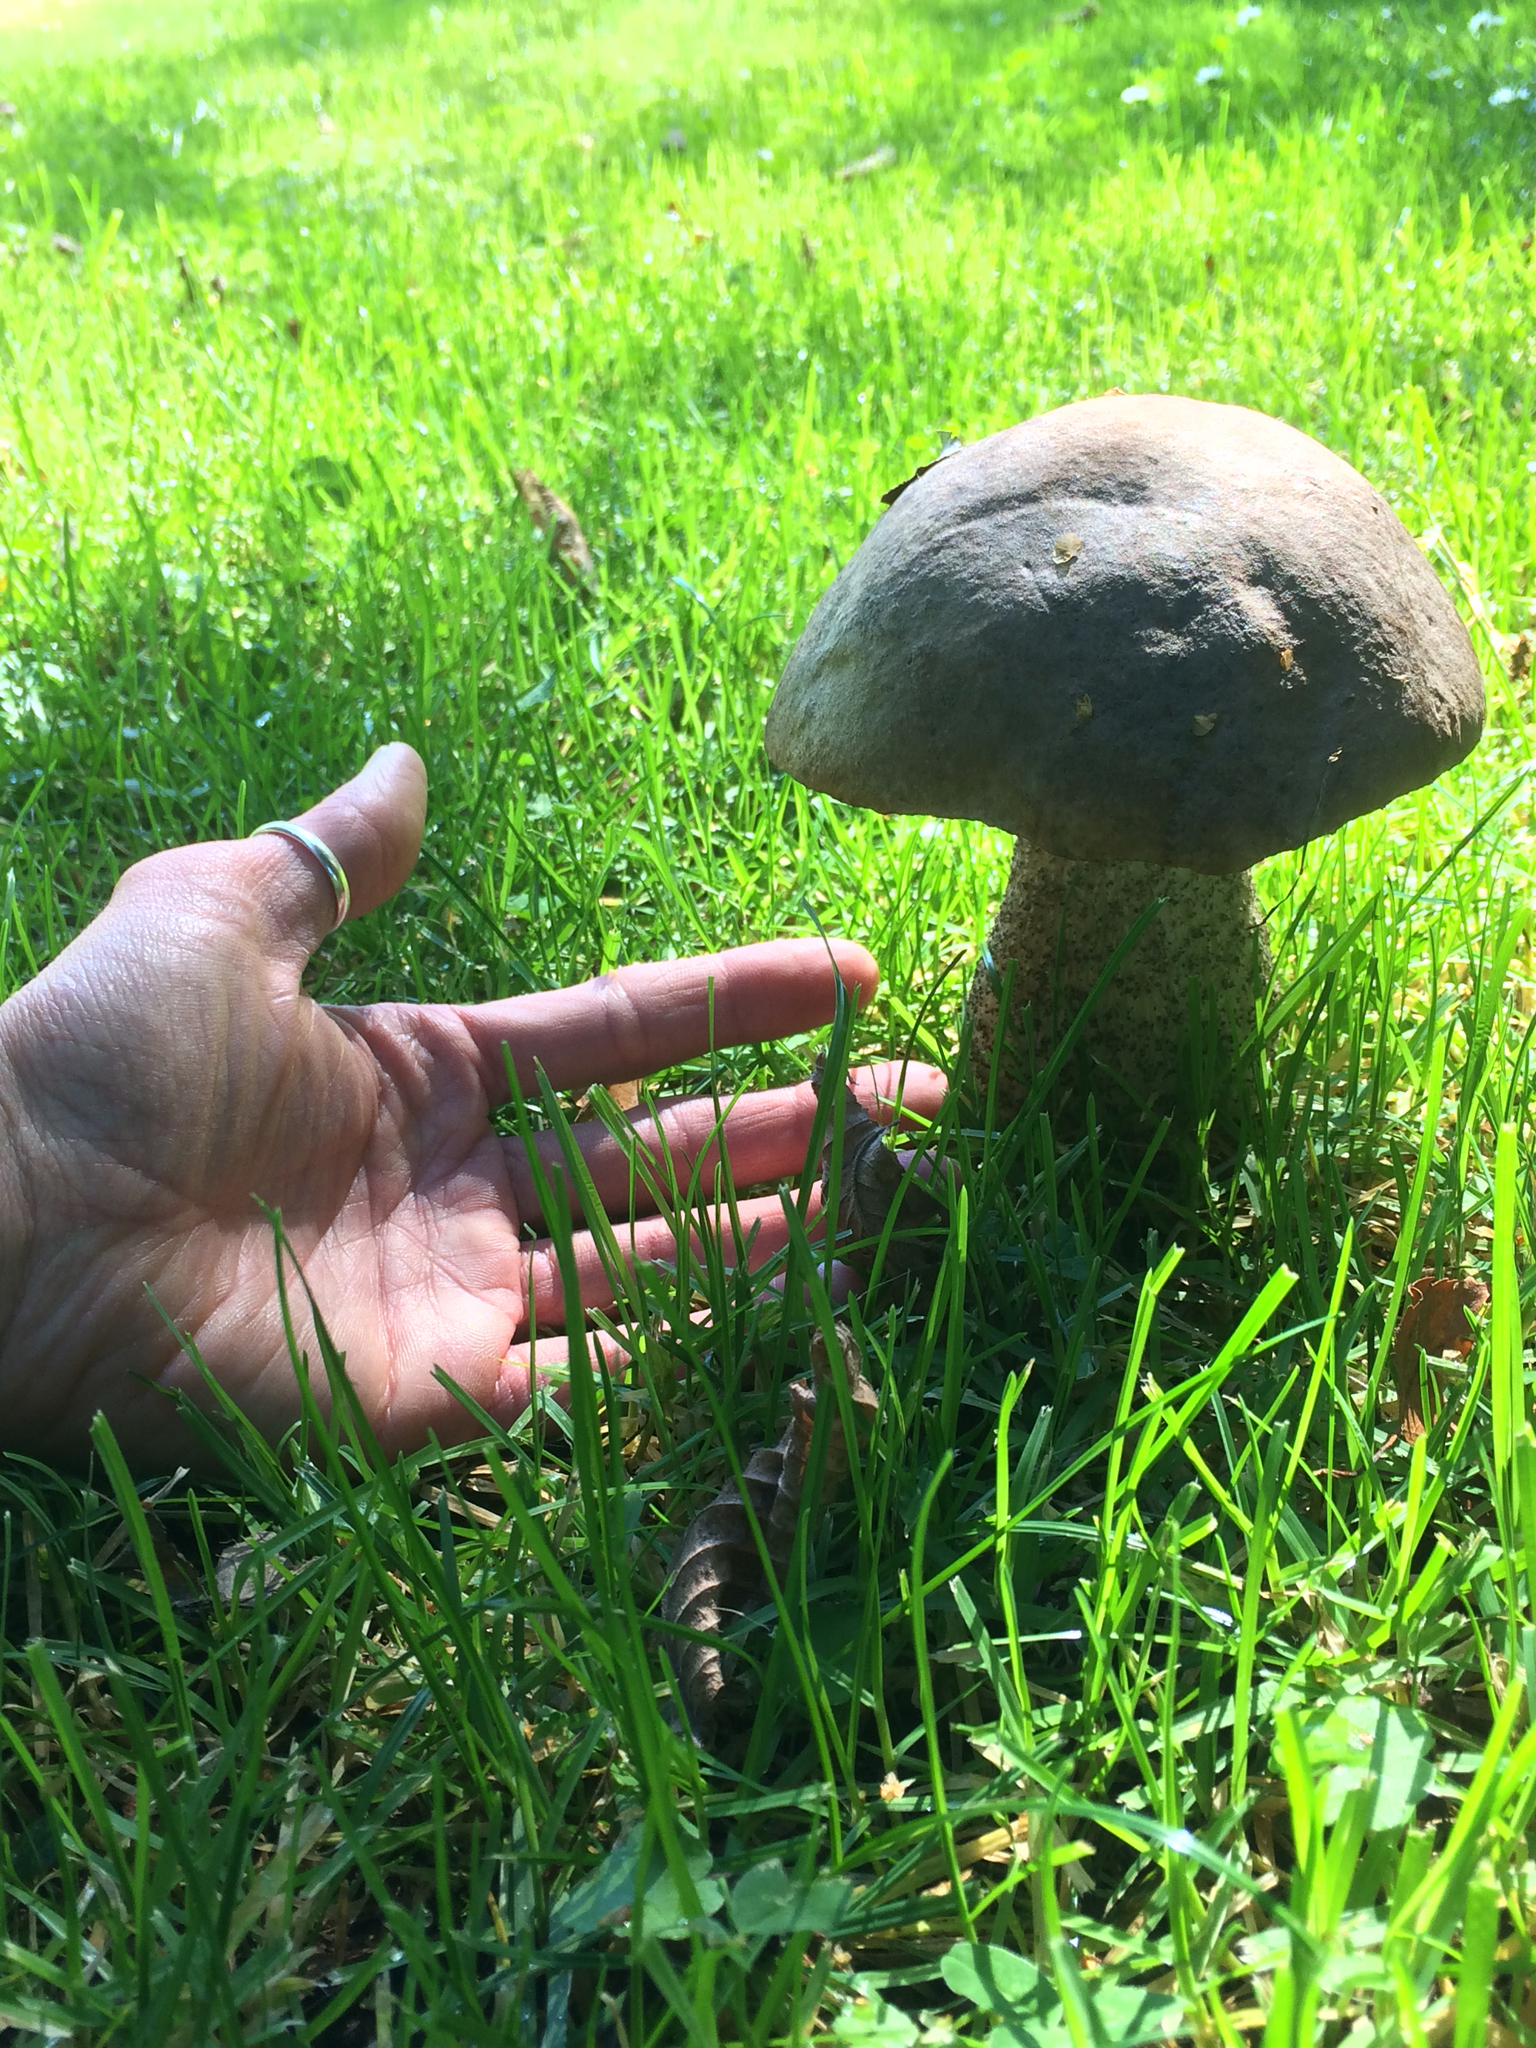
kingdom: Fungi
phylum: Basidiomycota
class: Agaricomycetes
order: Boletales
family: Boletaceae
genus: Leccinum
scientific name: Leccinum scabrum
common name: Blushing bolete
